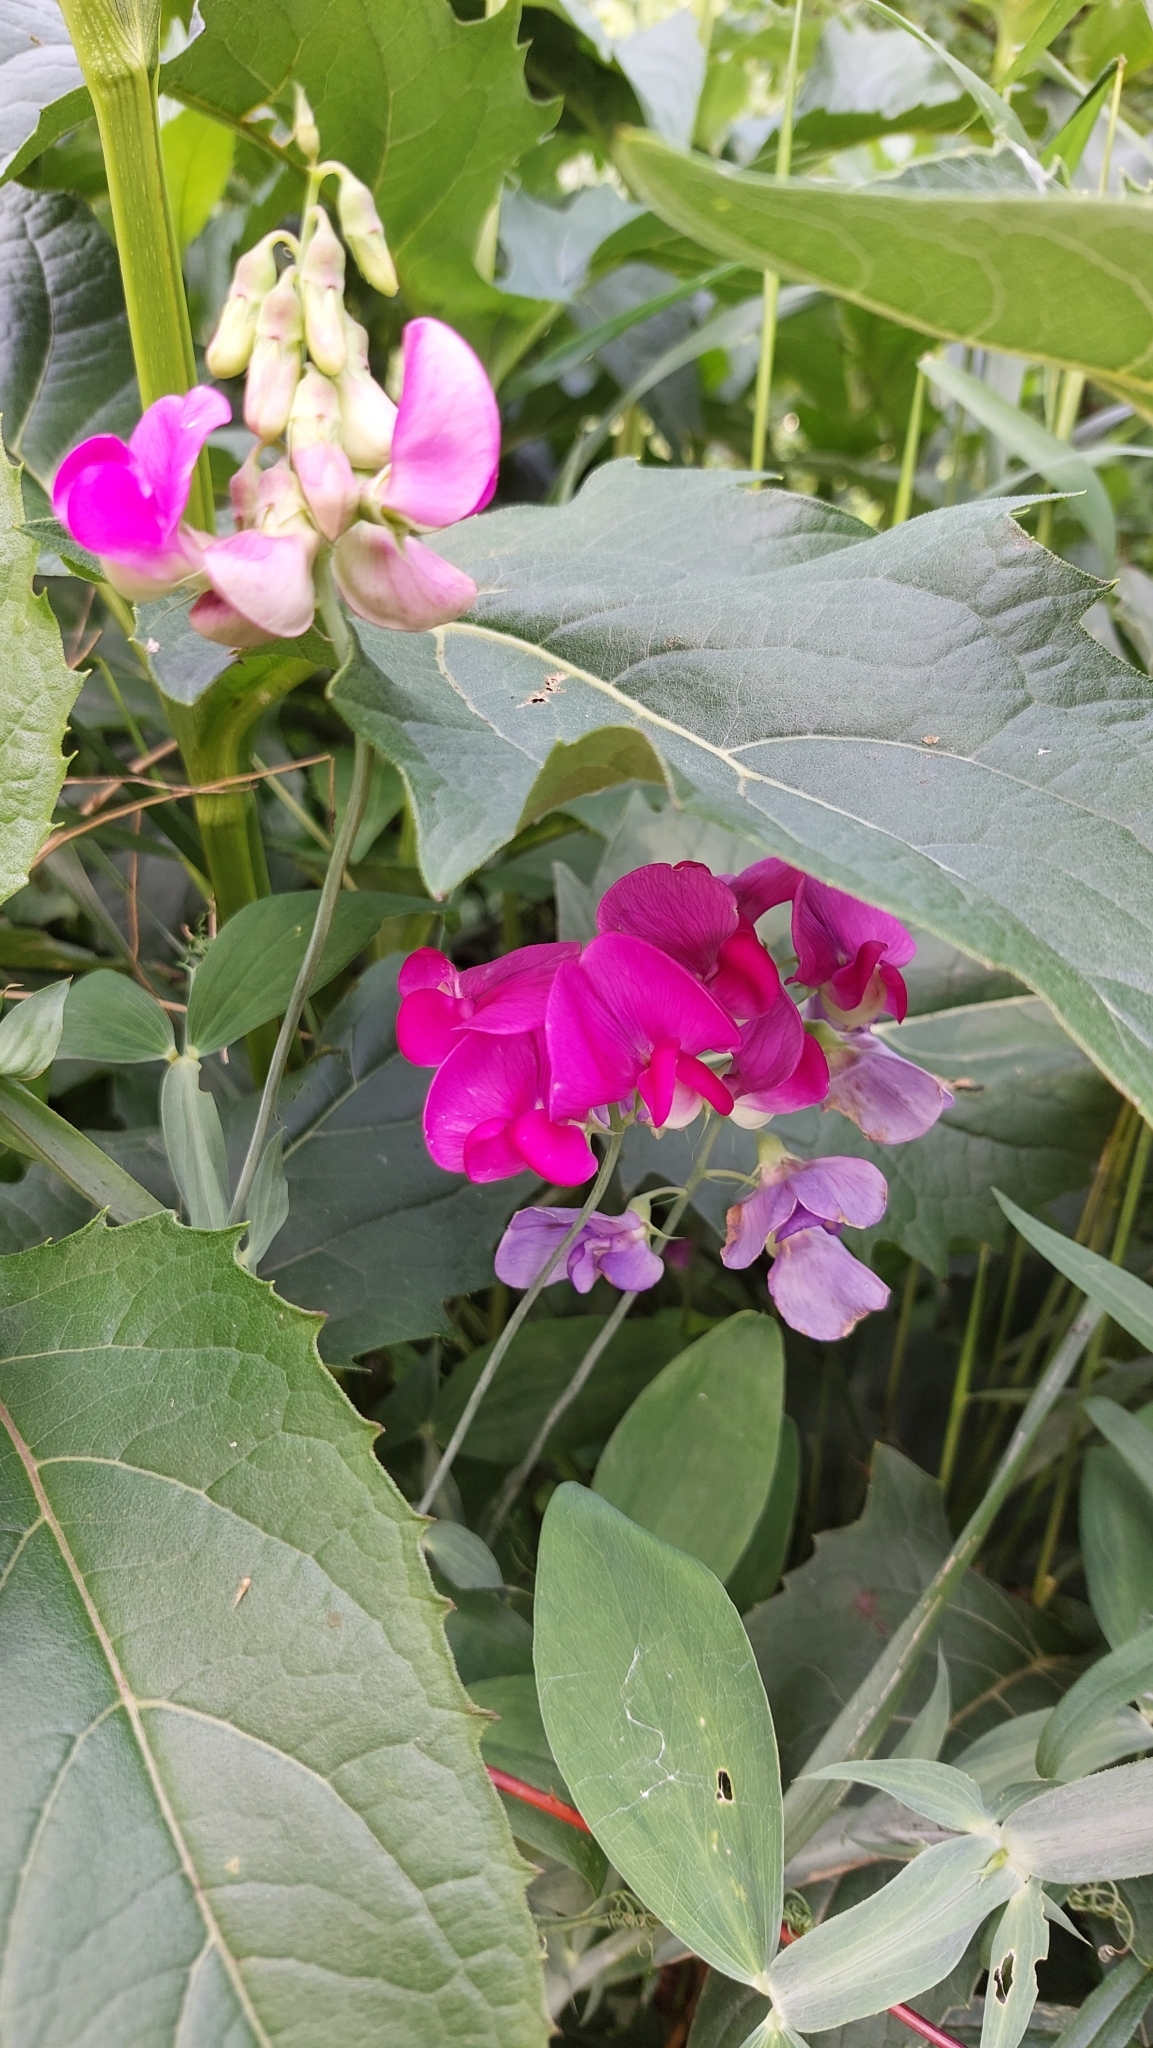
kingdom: Plantae
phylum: Tracheophyta
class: Magnoliopsida
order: Fabales
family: Fabaceae
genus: Lathyrus
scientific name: Lathyrus latifolius
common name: Perennial pea
